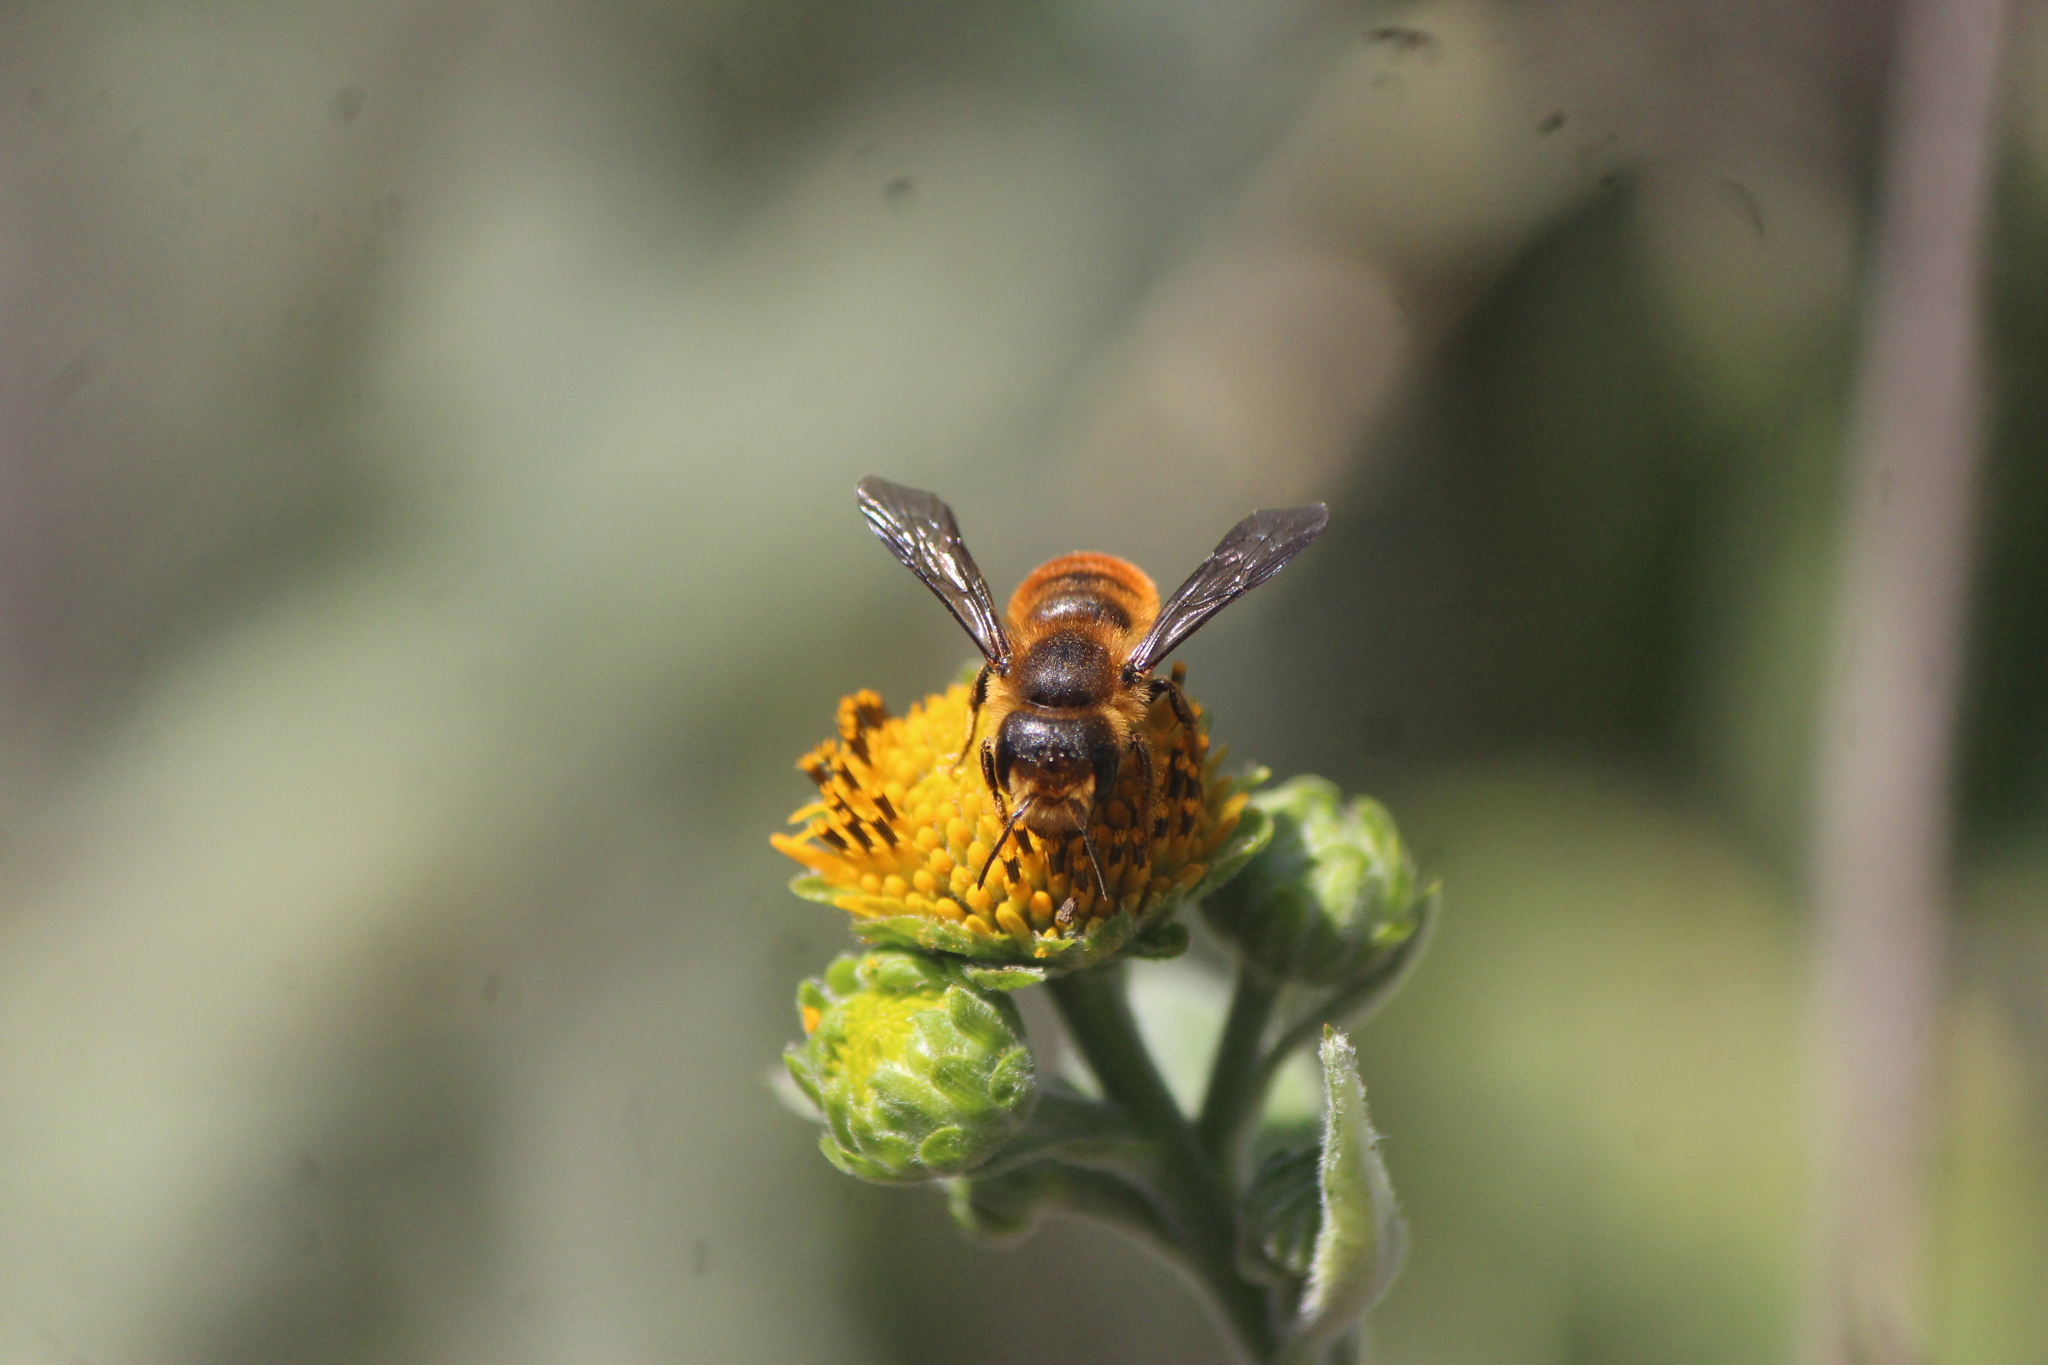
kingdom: Animalia
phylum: Arthropoda
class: Insecta
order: Hymenoptera
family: Megachilidae
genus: Osmia
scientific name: Osmia azteca
